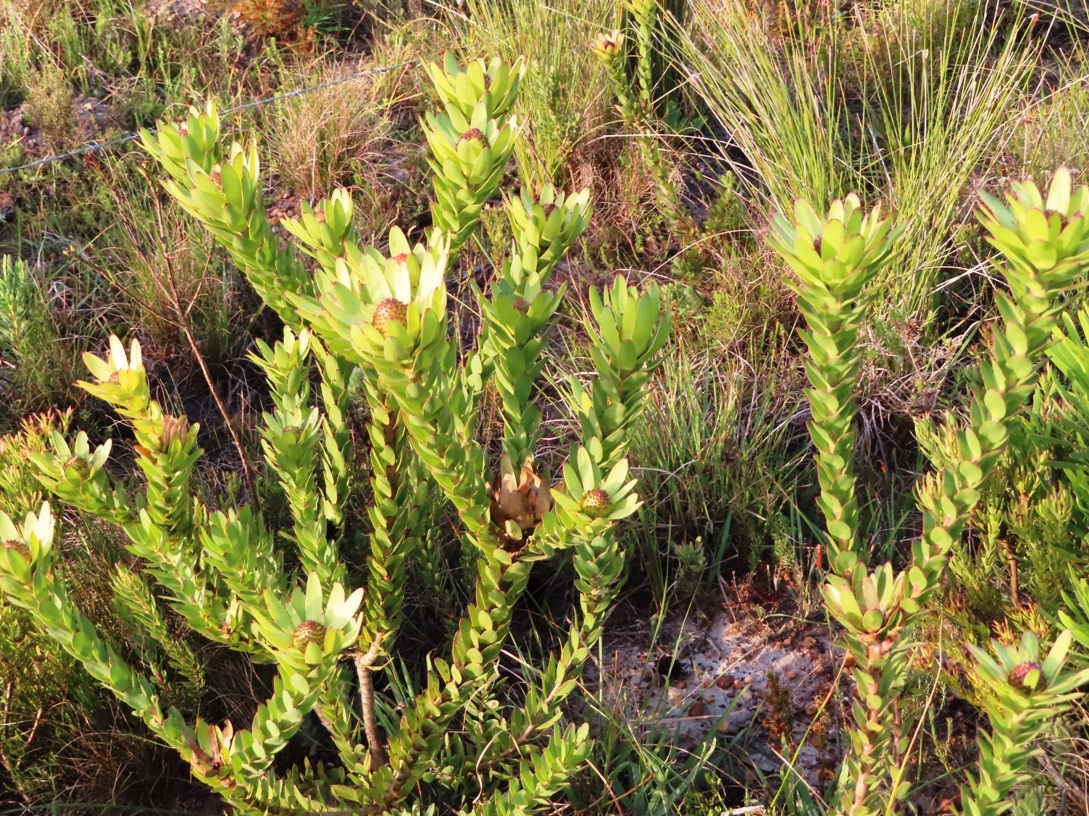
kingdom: Plantae
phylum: Tracheophyta
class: Magnoliopsida
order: Proteales
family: Proteaceae
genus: Leucadendron
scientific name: Leucadendron elimense
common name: Elim conebush
